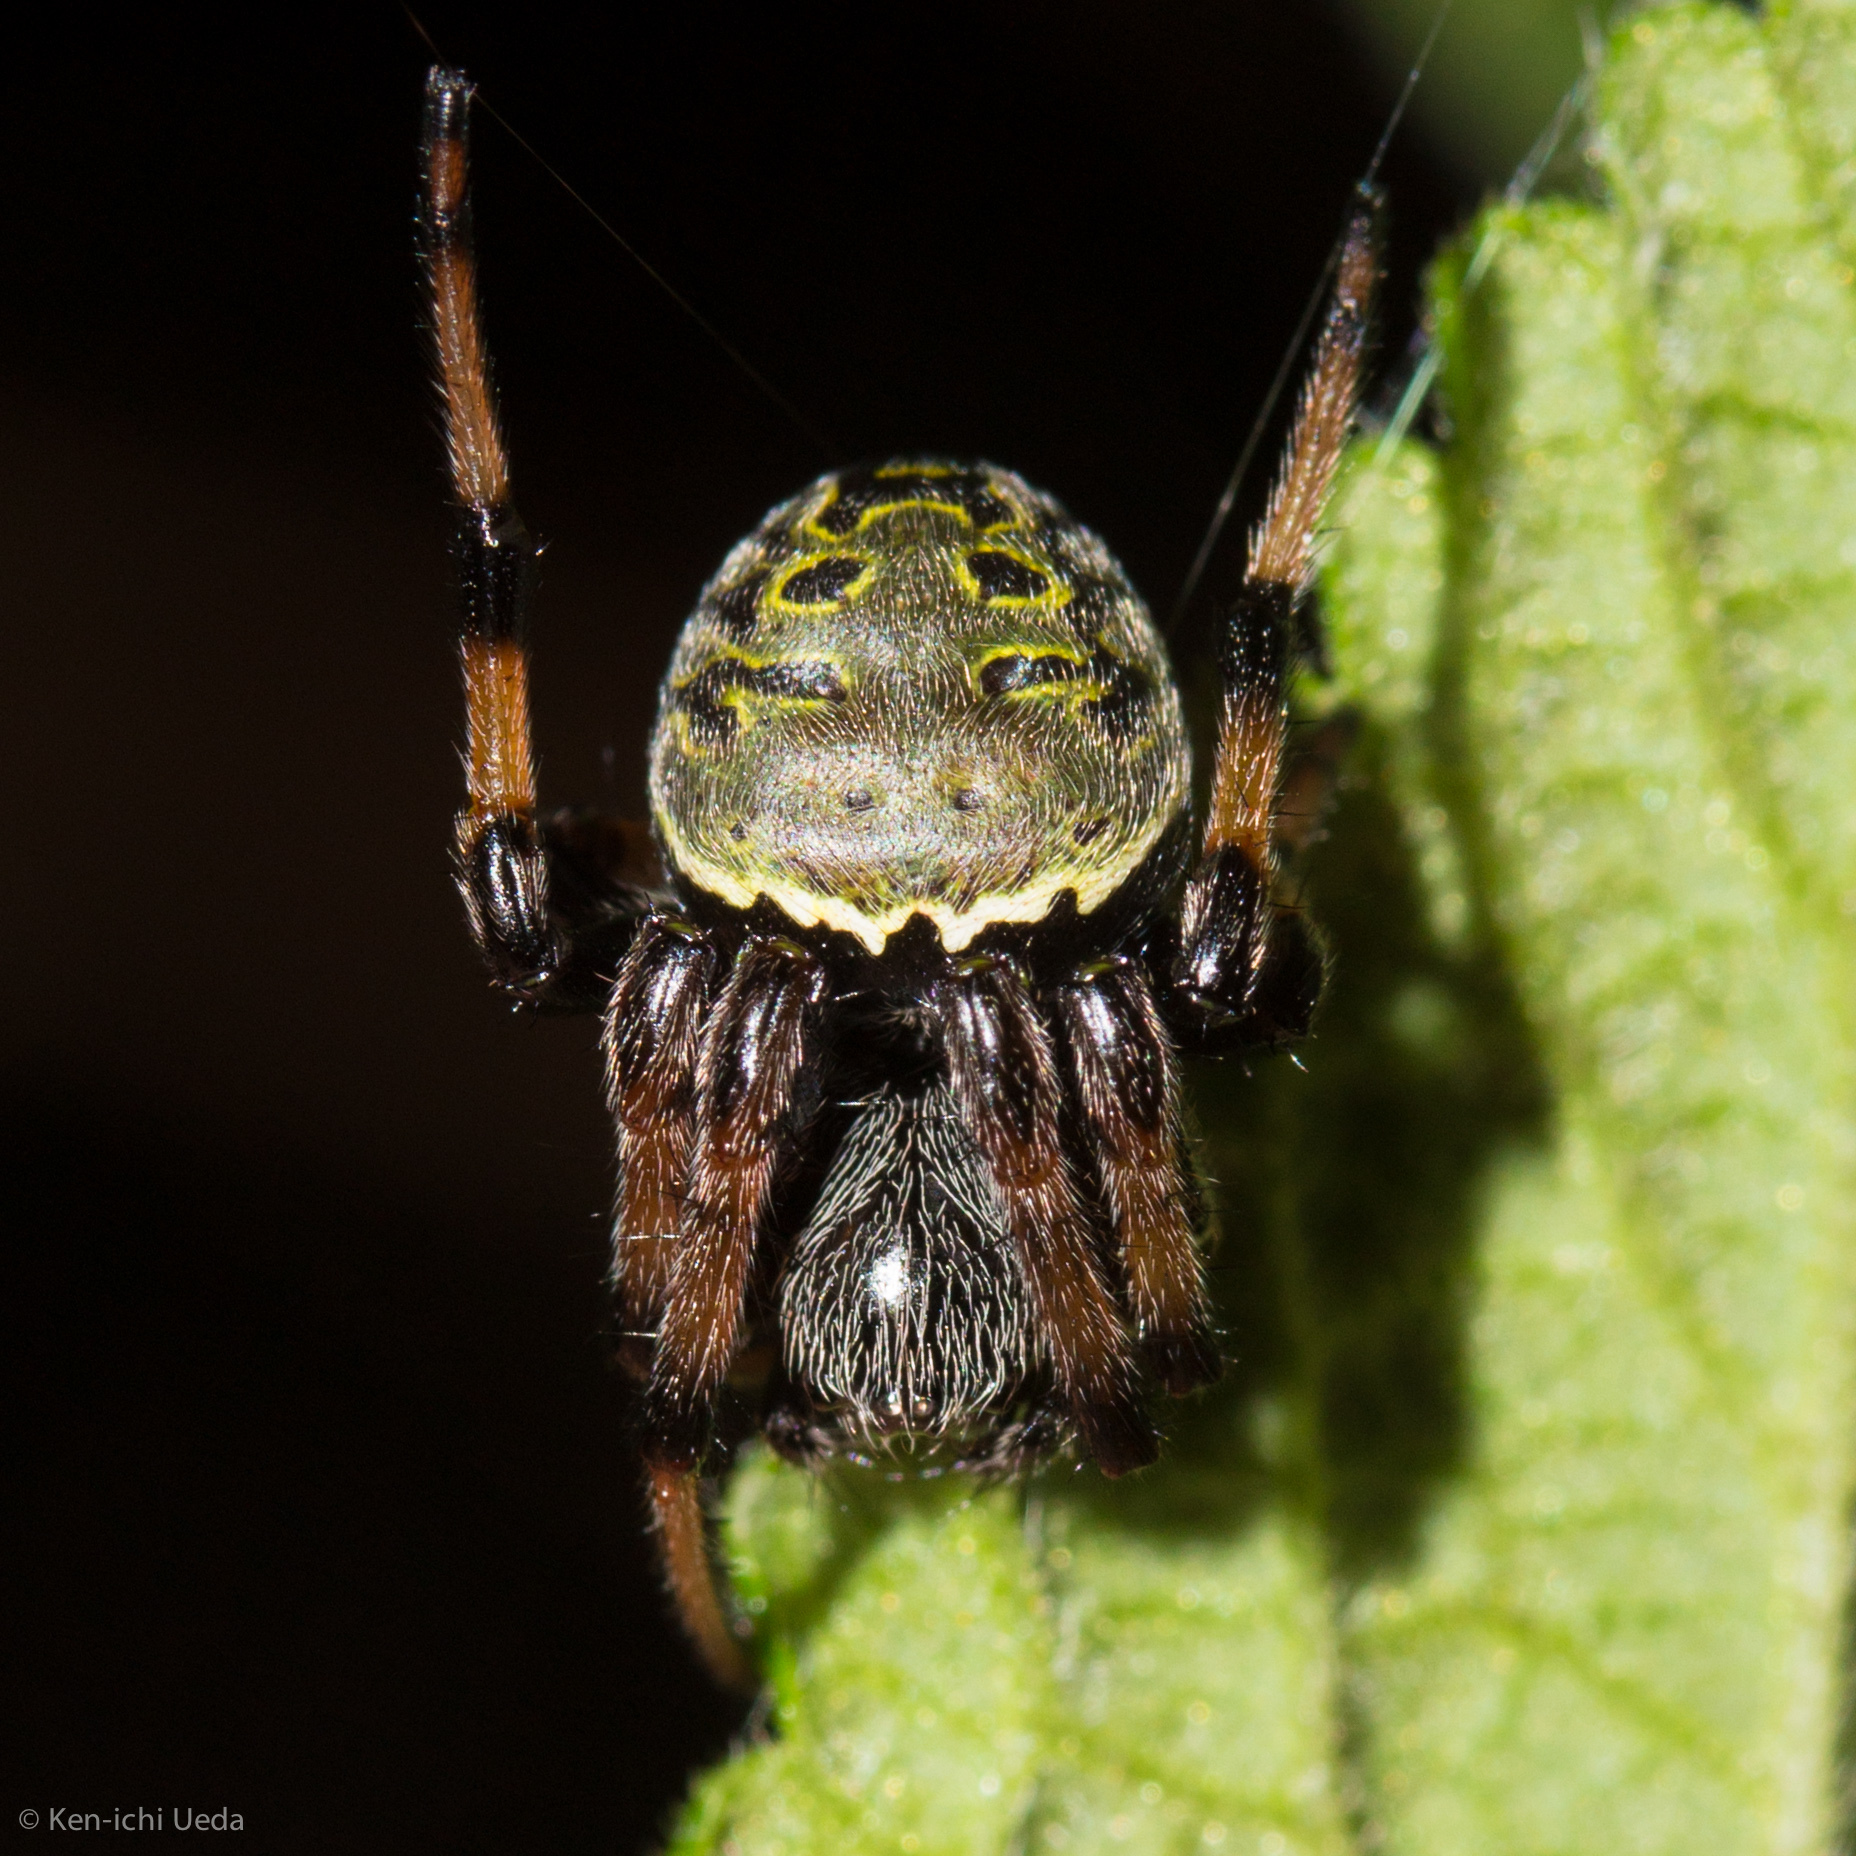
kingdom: Animalia
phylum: Arthropoda
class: Arachnida
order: Araneae
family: Araneidae
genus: Araneus
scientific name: Araneus granadensis
